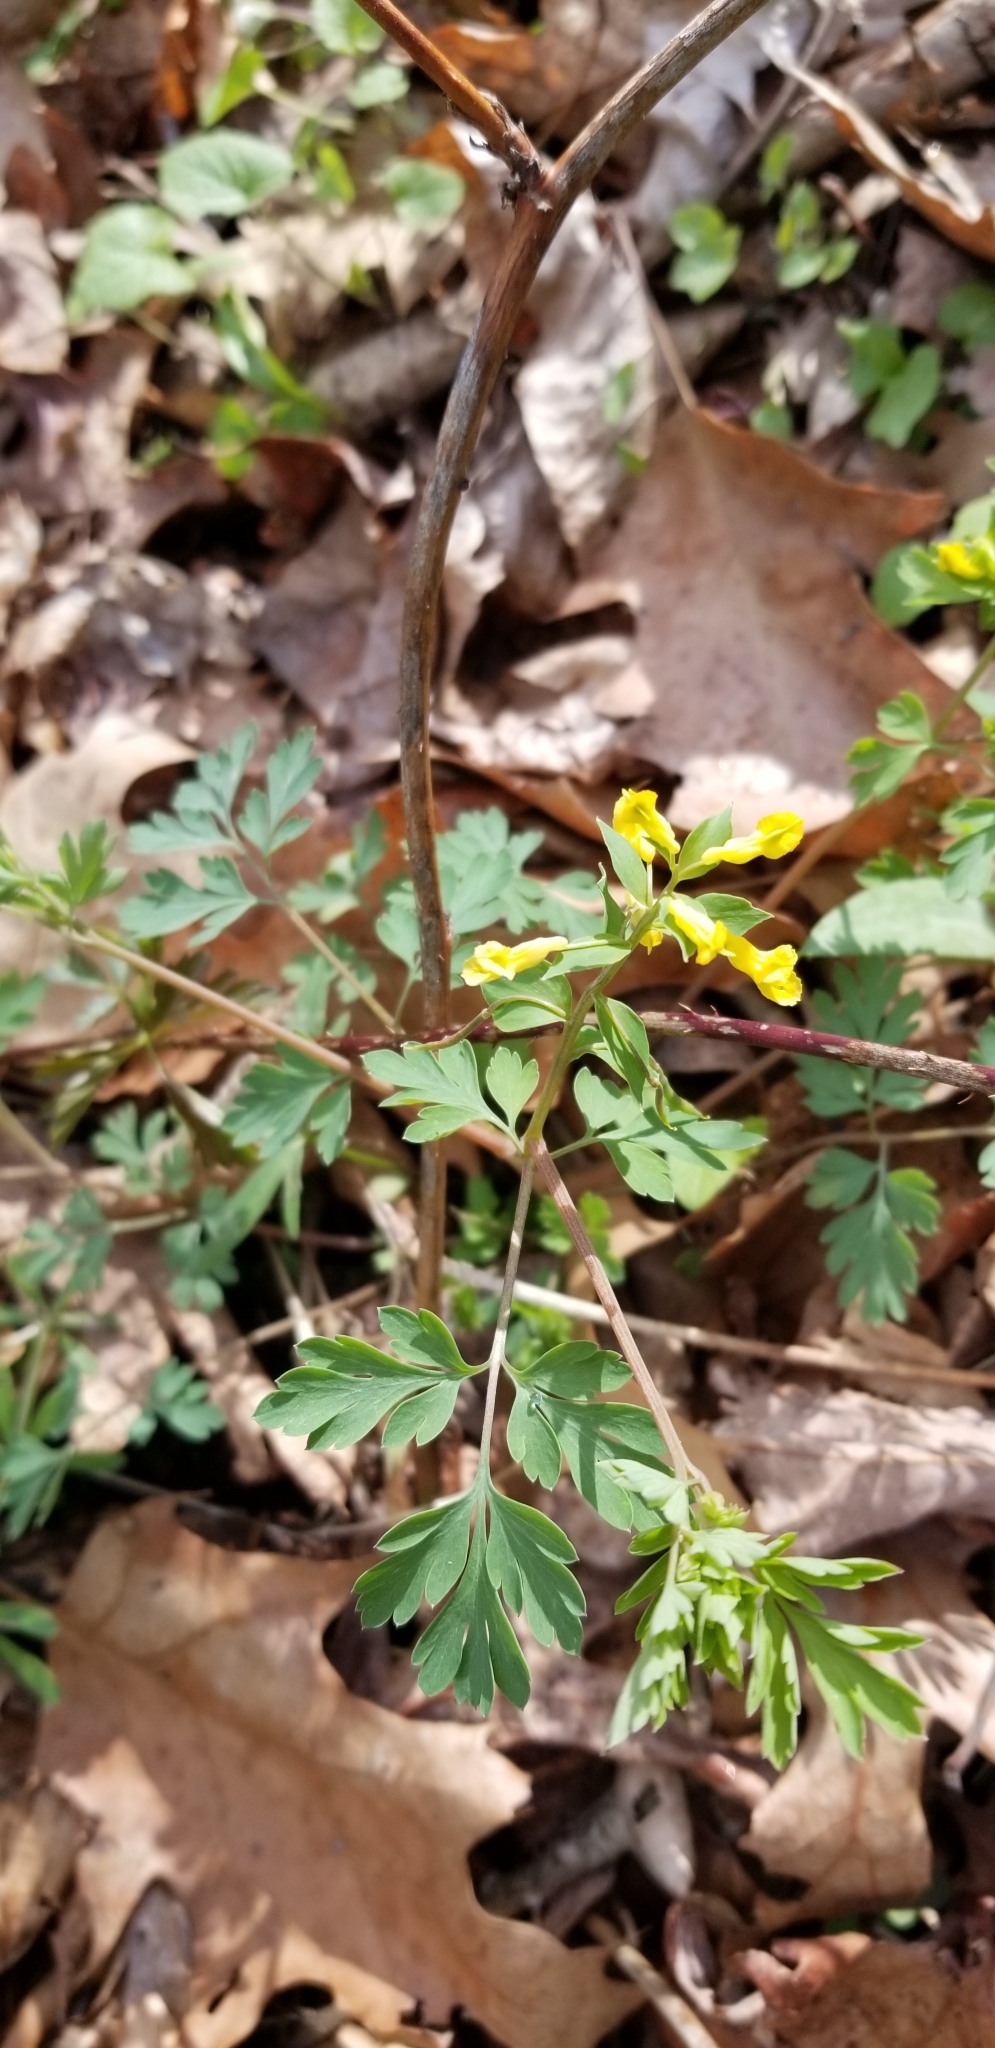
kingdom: Plantae
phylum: Tracheophyta
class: Magnoliopsida
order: Ranunculales
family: Papaveraceae
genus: Corydalis
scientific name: Corydalis flavula
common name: Yellow corydalis
